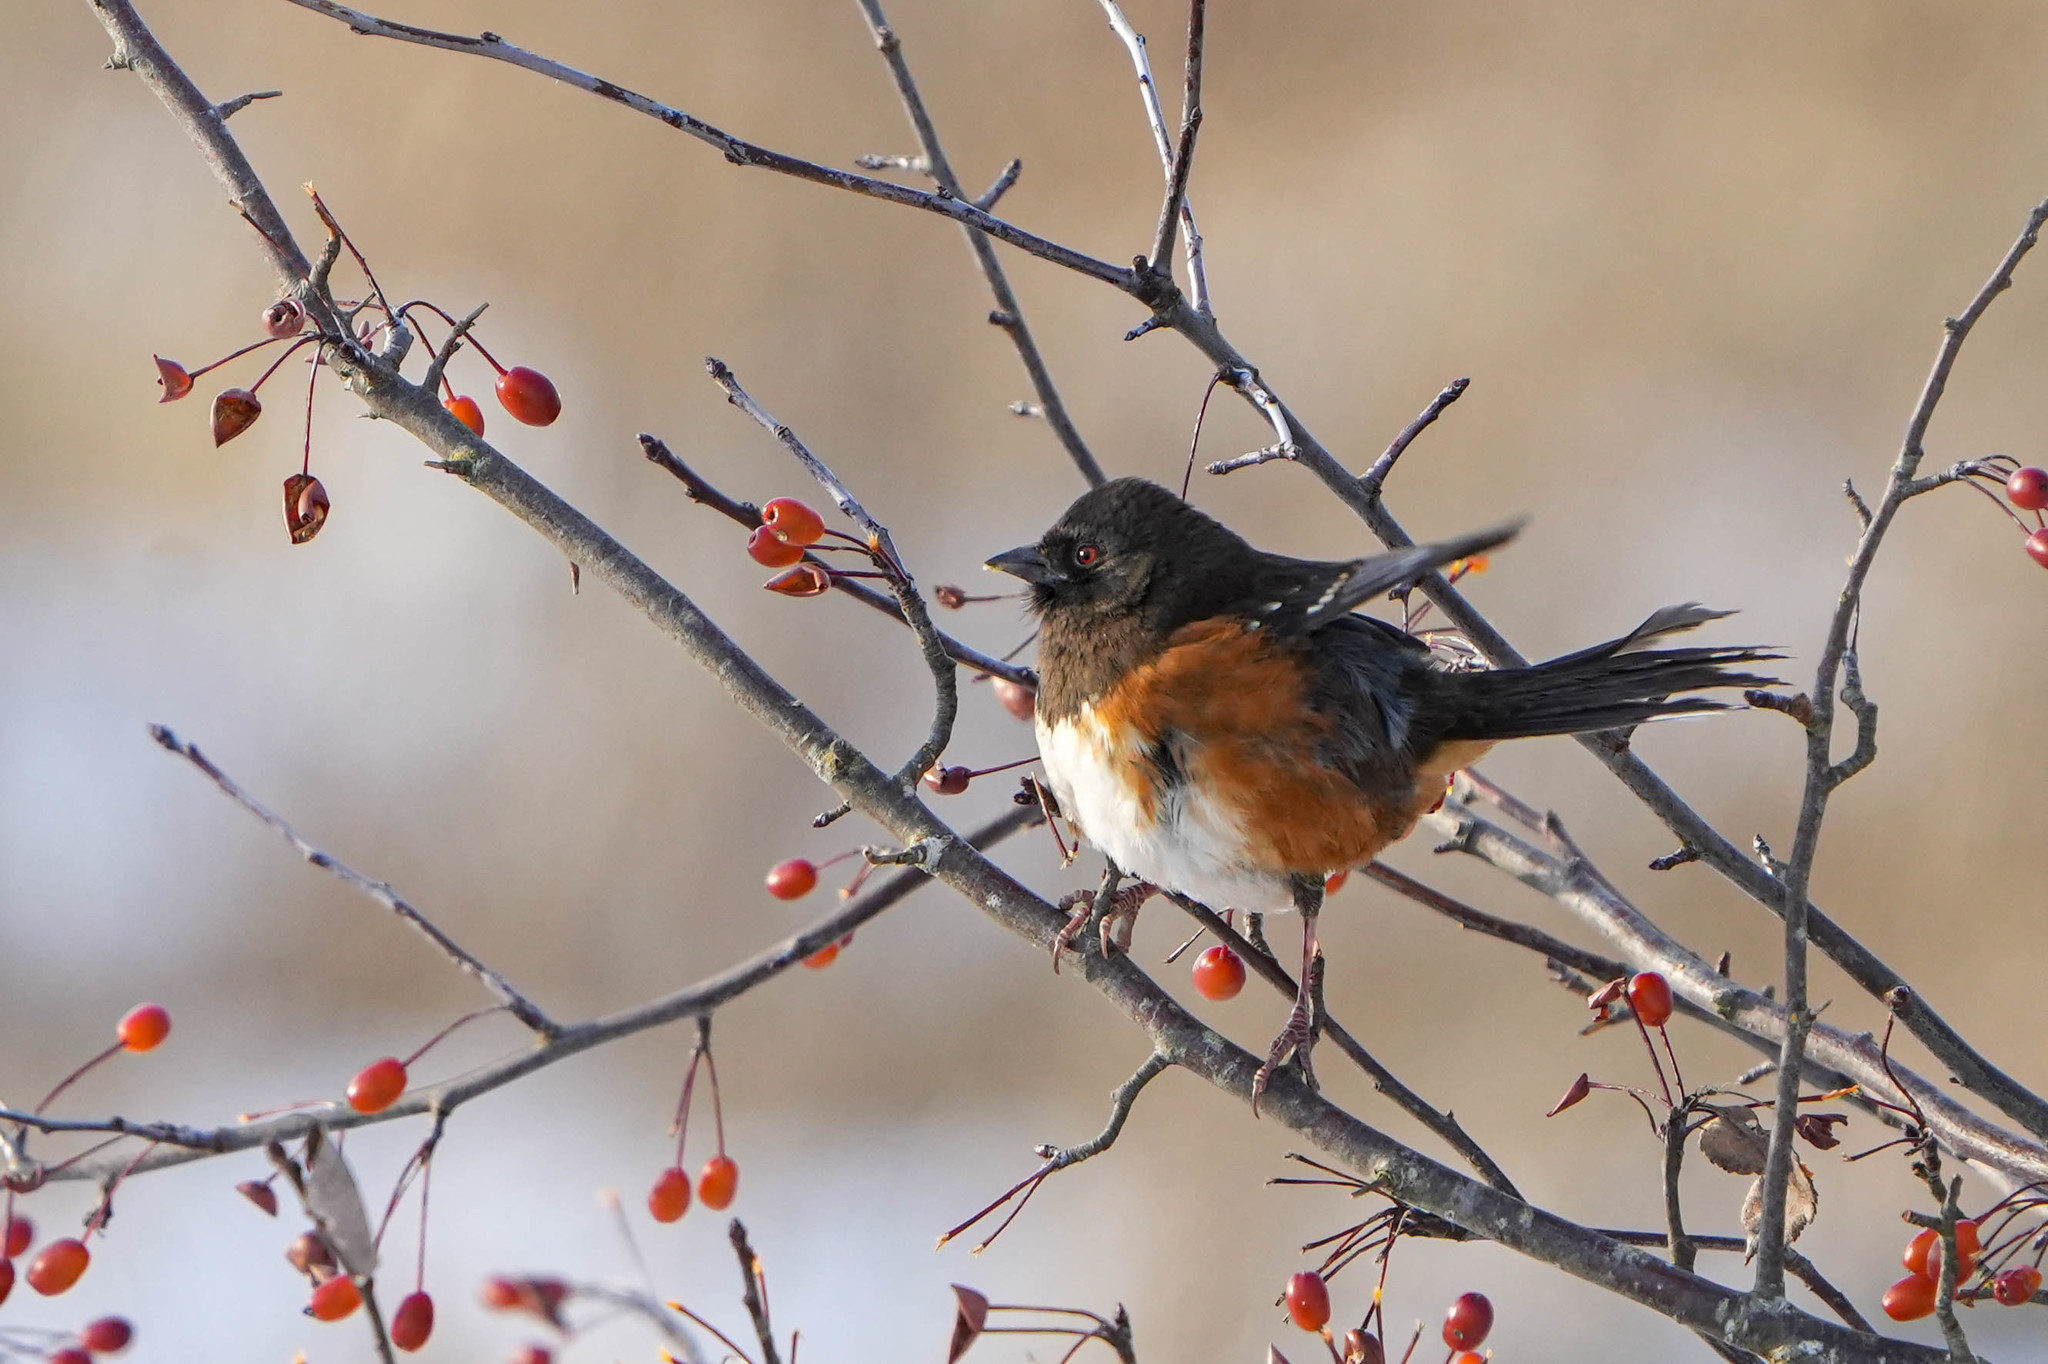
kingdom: Animalia
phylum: Chordata
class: Aves
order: Passeriformes
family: Passerellidae
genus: Pipilo
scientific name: Pipilo maculatus
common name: Spotted towhee
